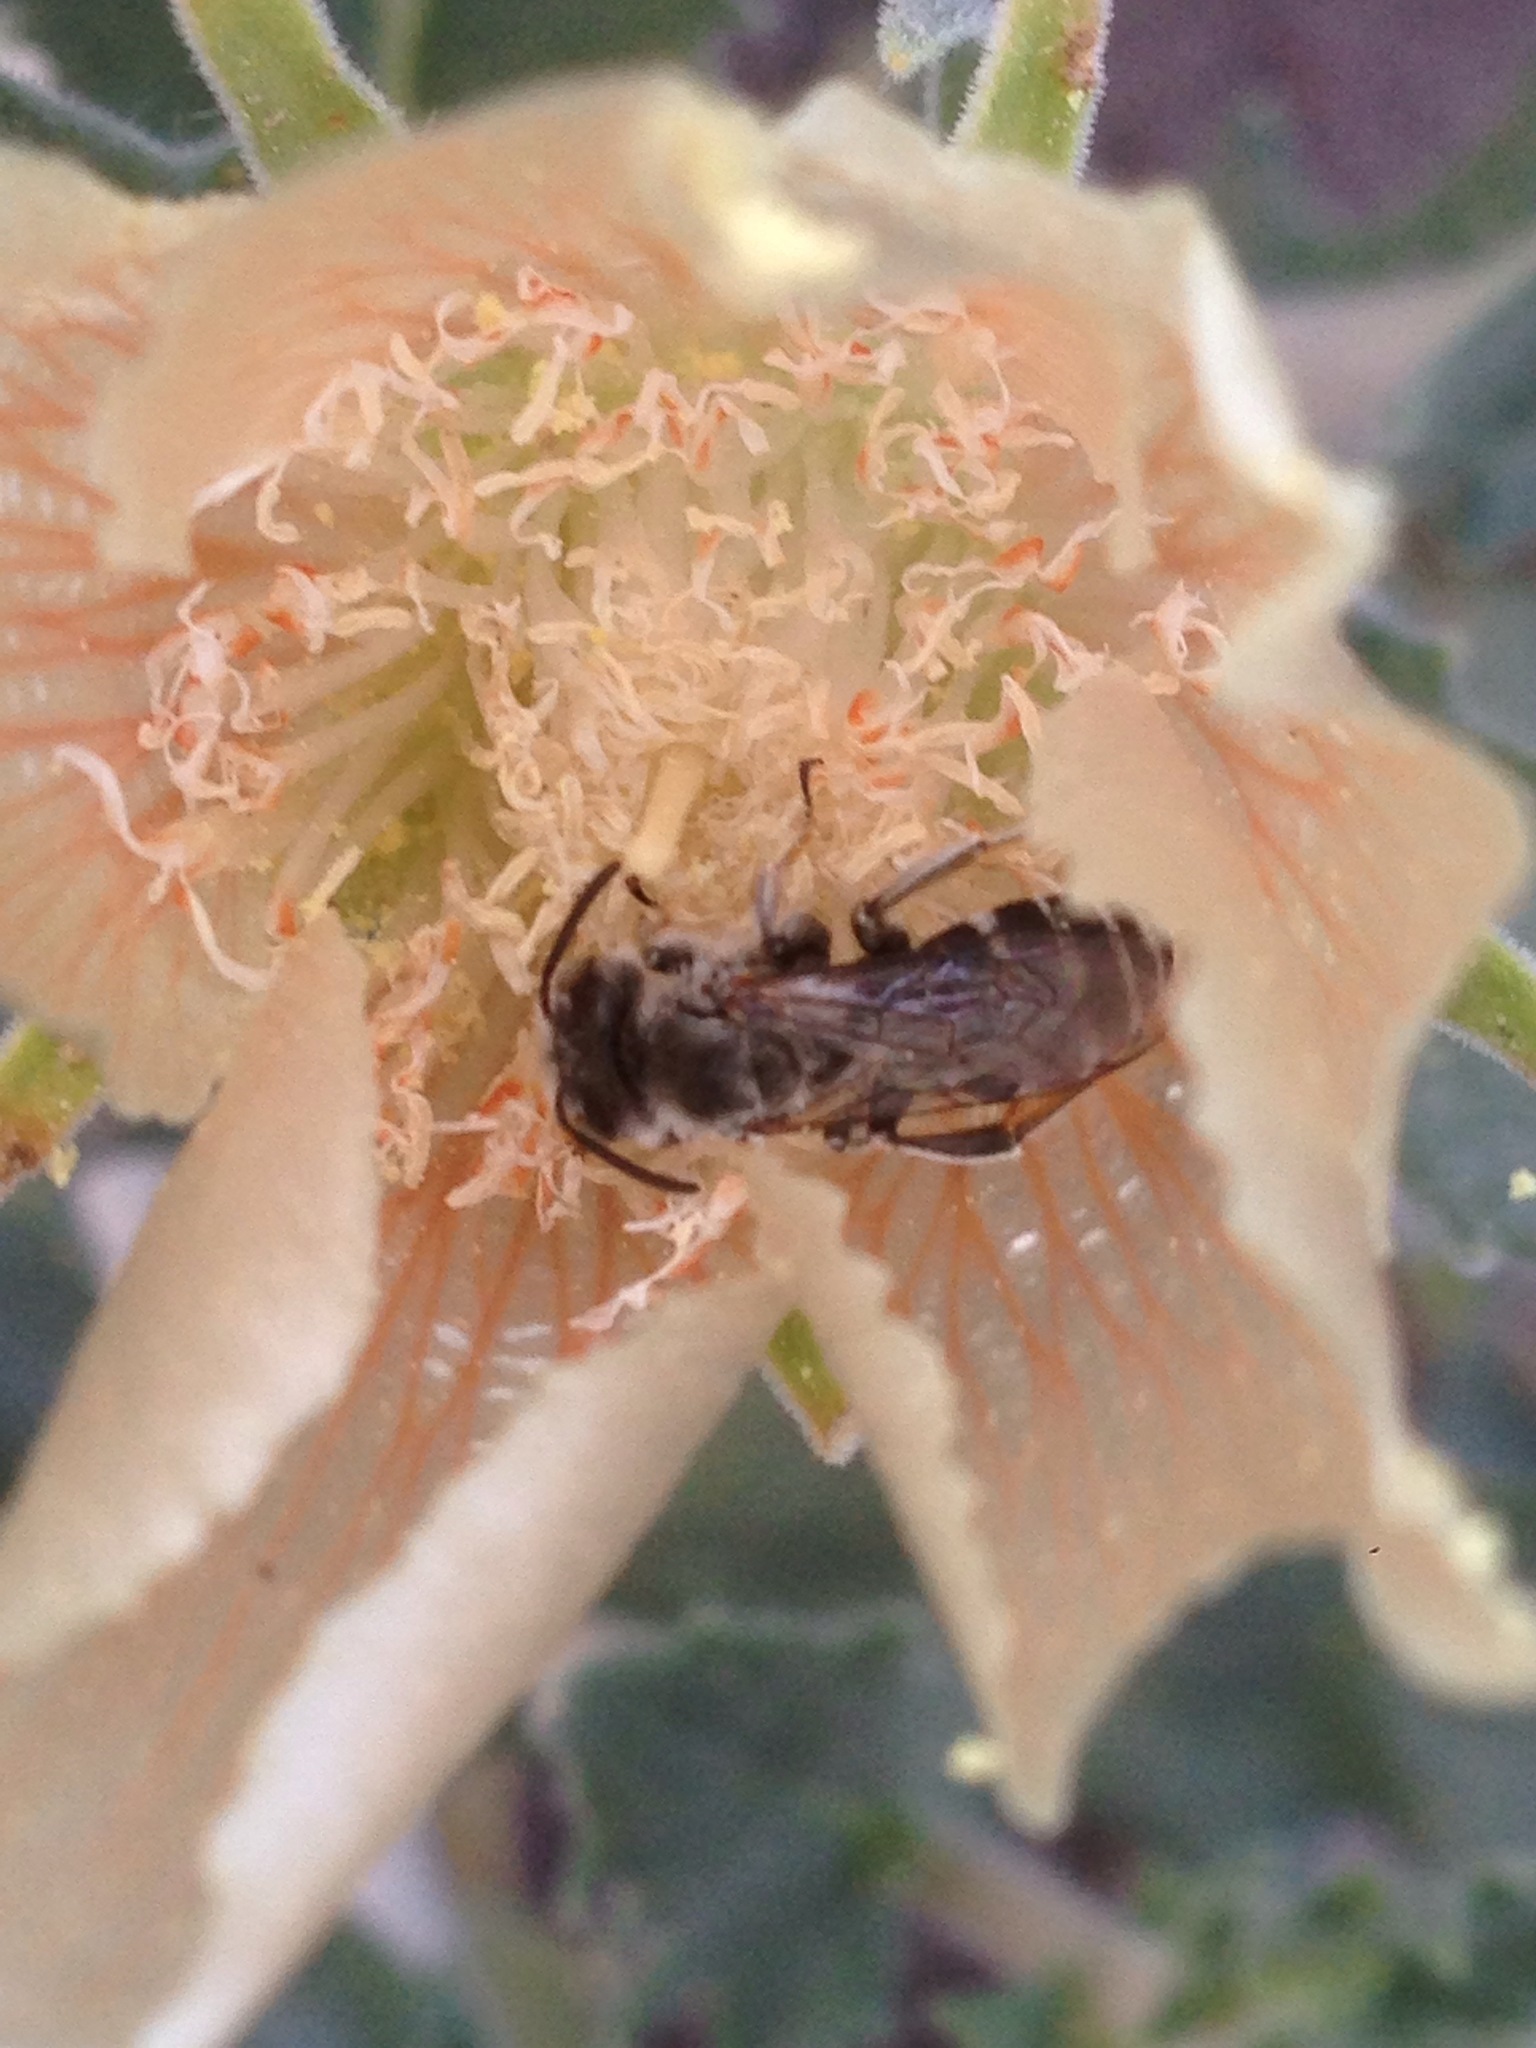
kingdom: Animalia
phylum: Arthropoda
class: Insecta
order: Hymenoptera
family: Melittidae
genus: Hesperapis
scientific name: Hesperapis
